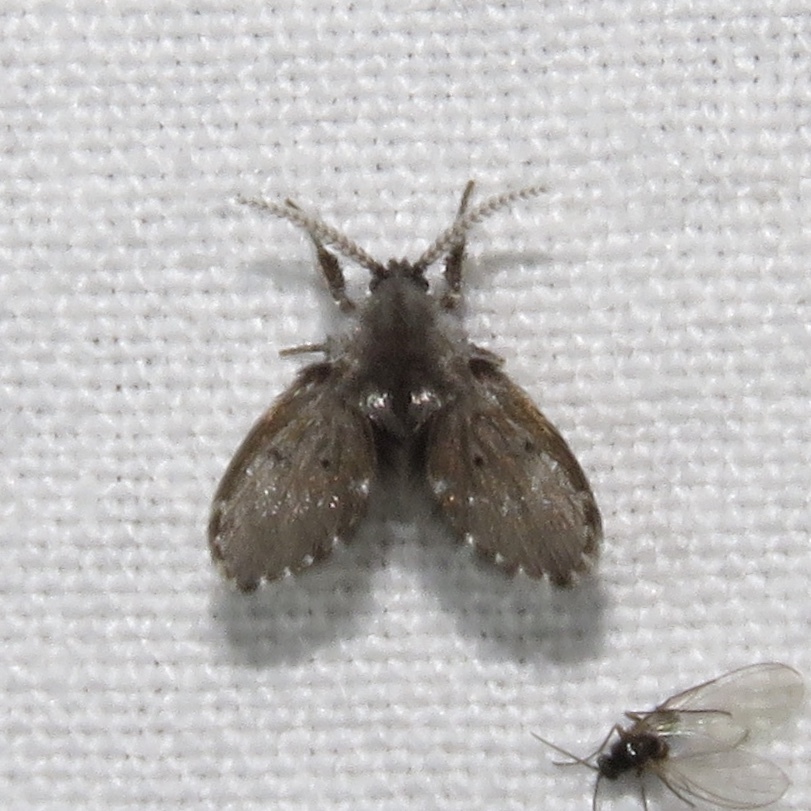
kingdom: Animalia
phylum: Arthropoda
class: Insecta
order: Diptera
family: Psychodidae
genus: Clogmia
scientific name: Clogmia albipunctatus
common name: White-spotted moth fly
